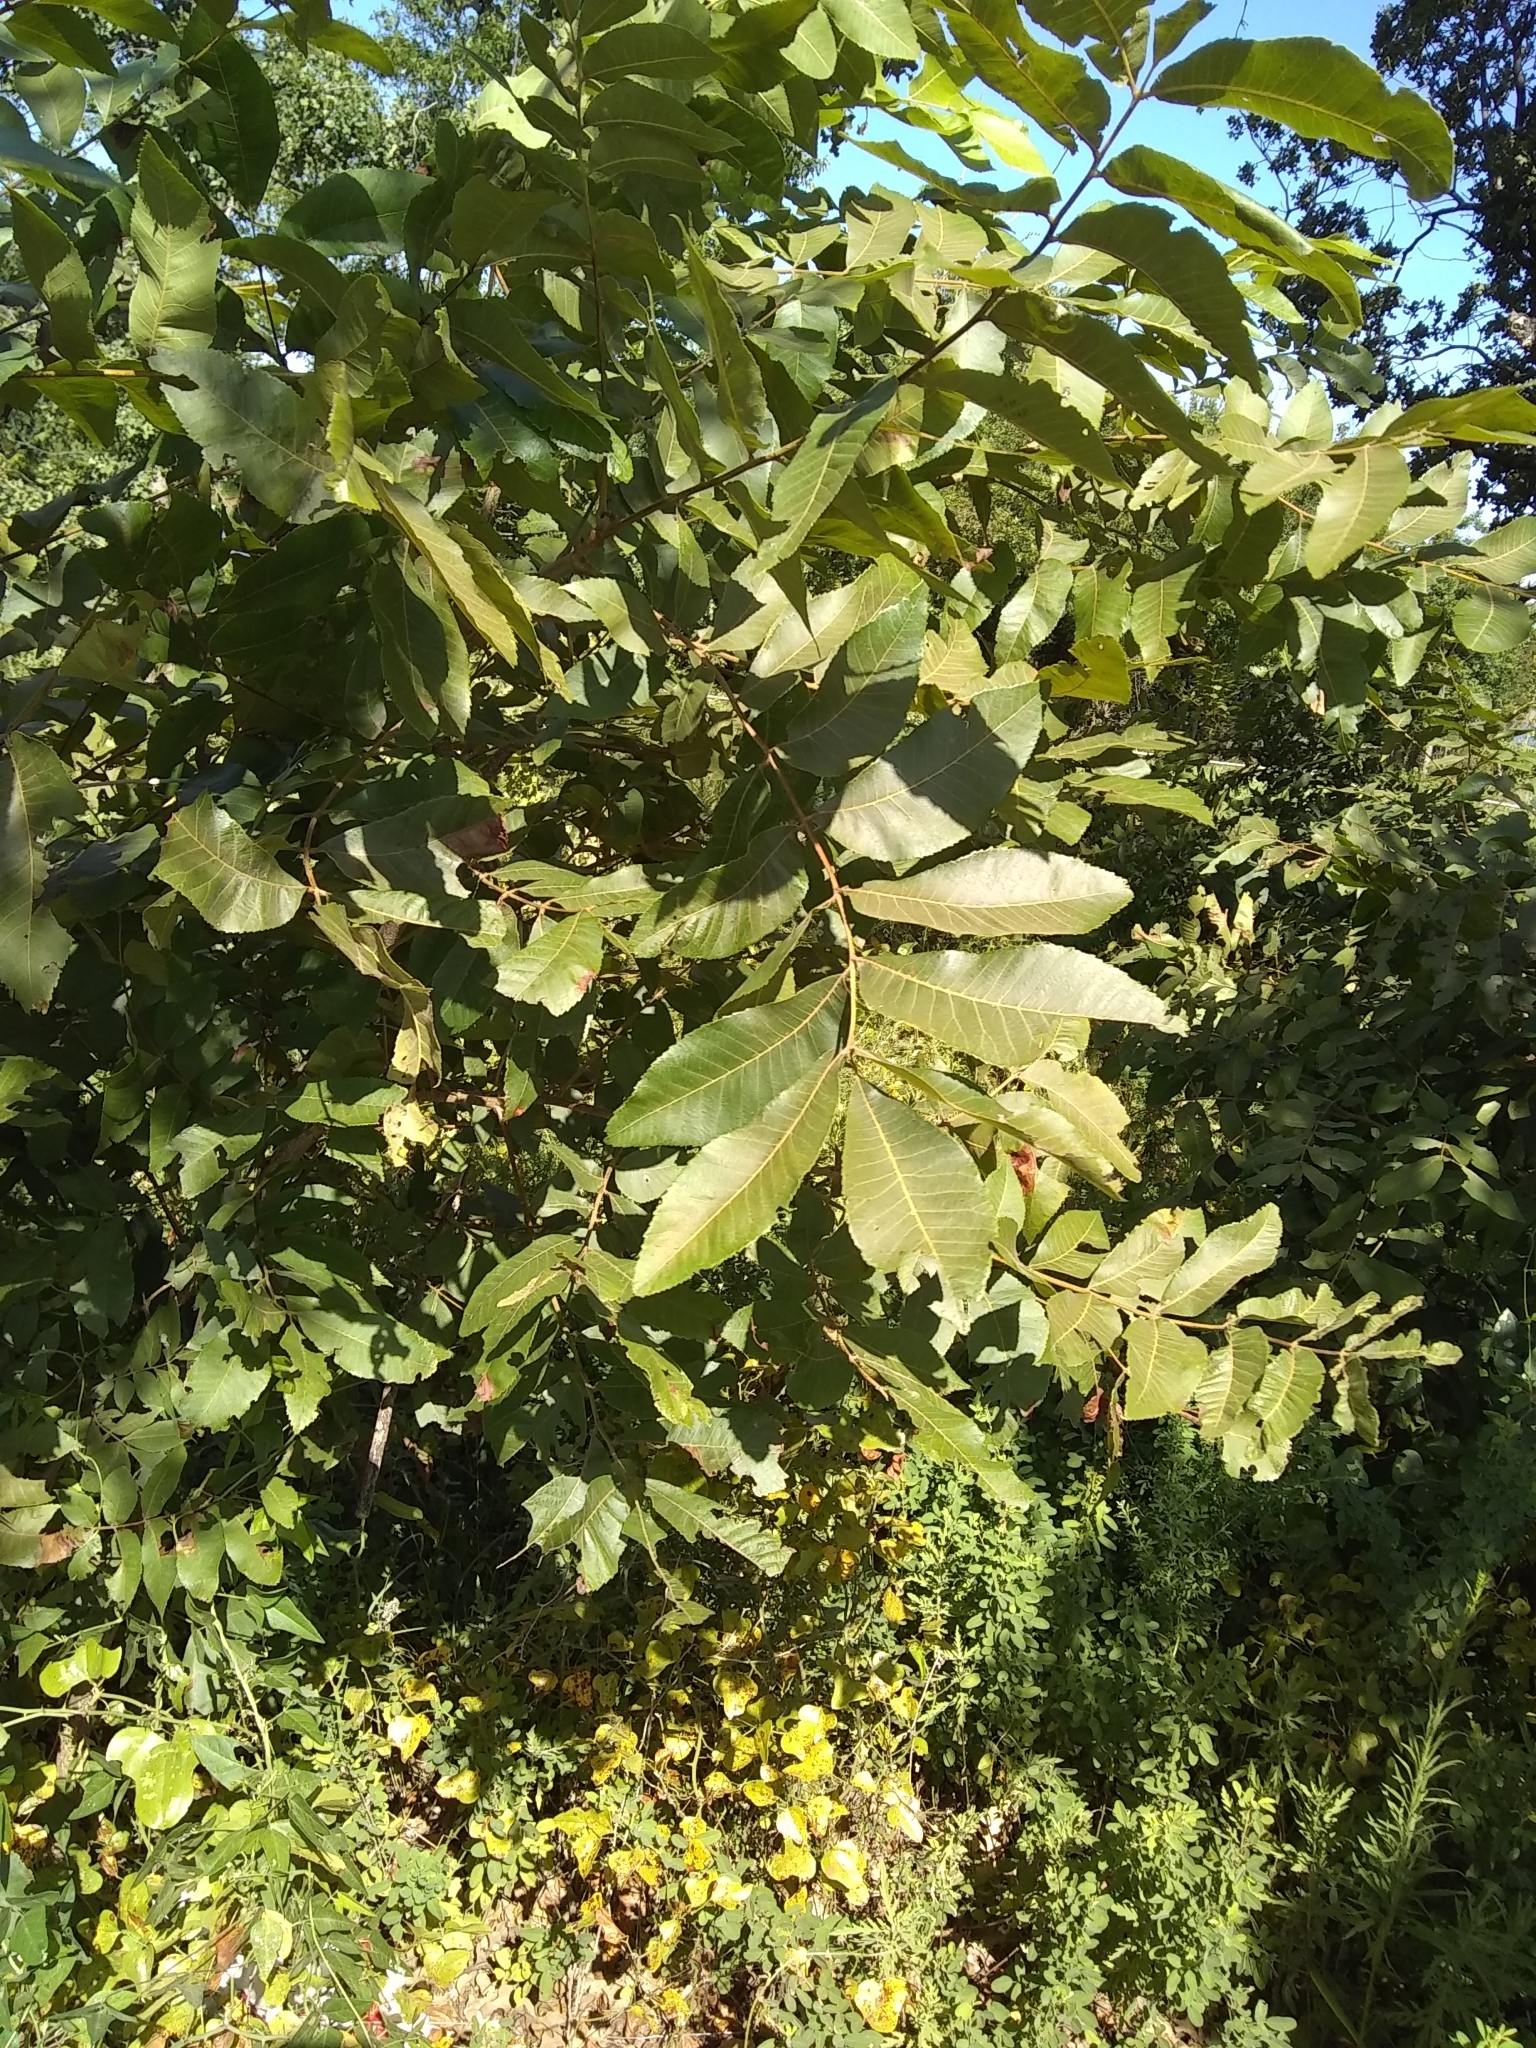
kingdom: Plantae
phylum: Tracheophyta
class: Magnoliopsida
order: Fagales
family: Juglandaceae
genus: Carya
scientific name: Carya illinoinensis
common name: Pecan
